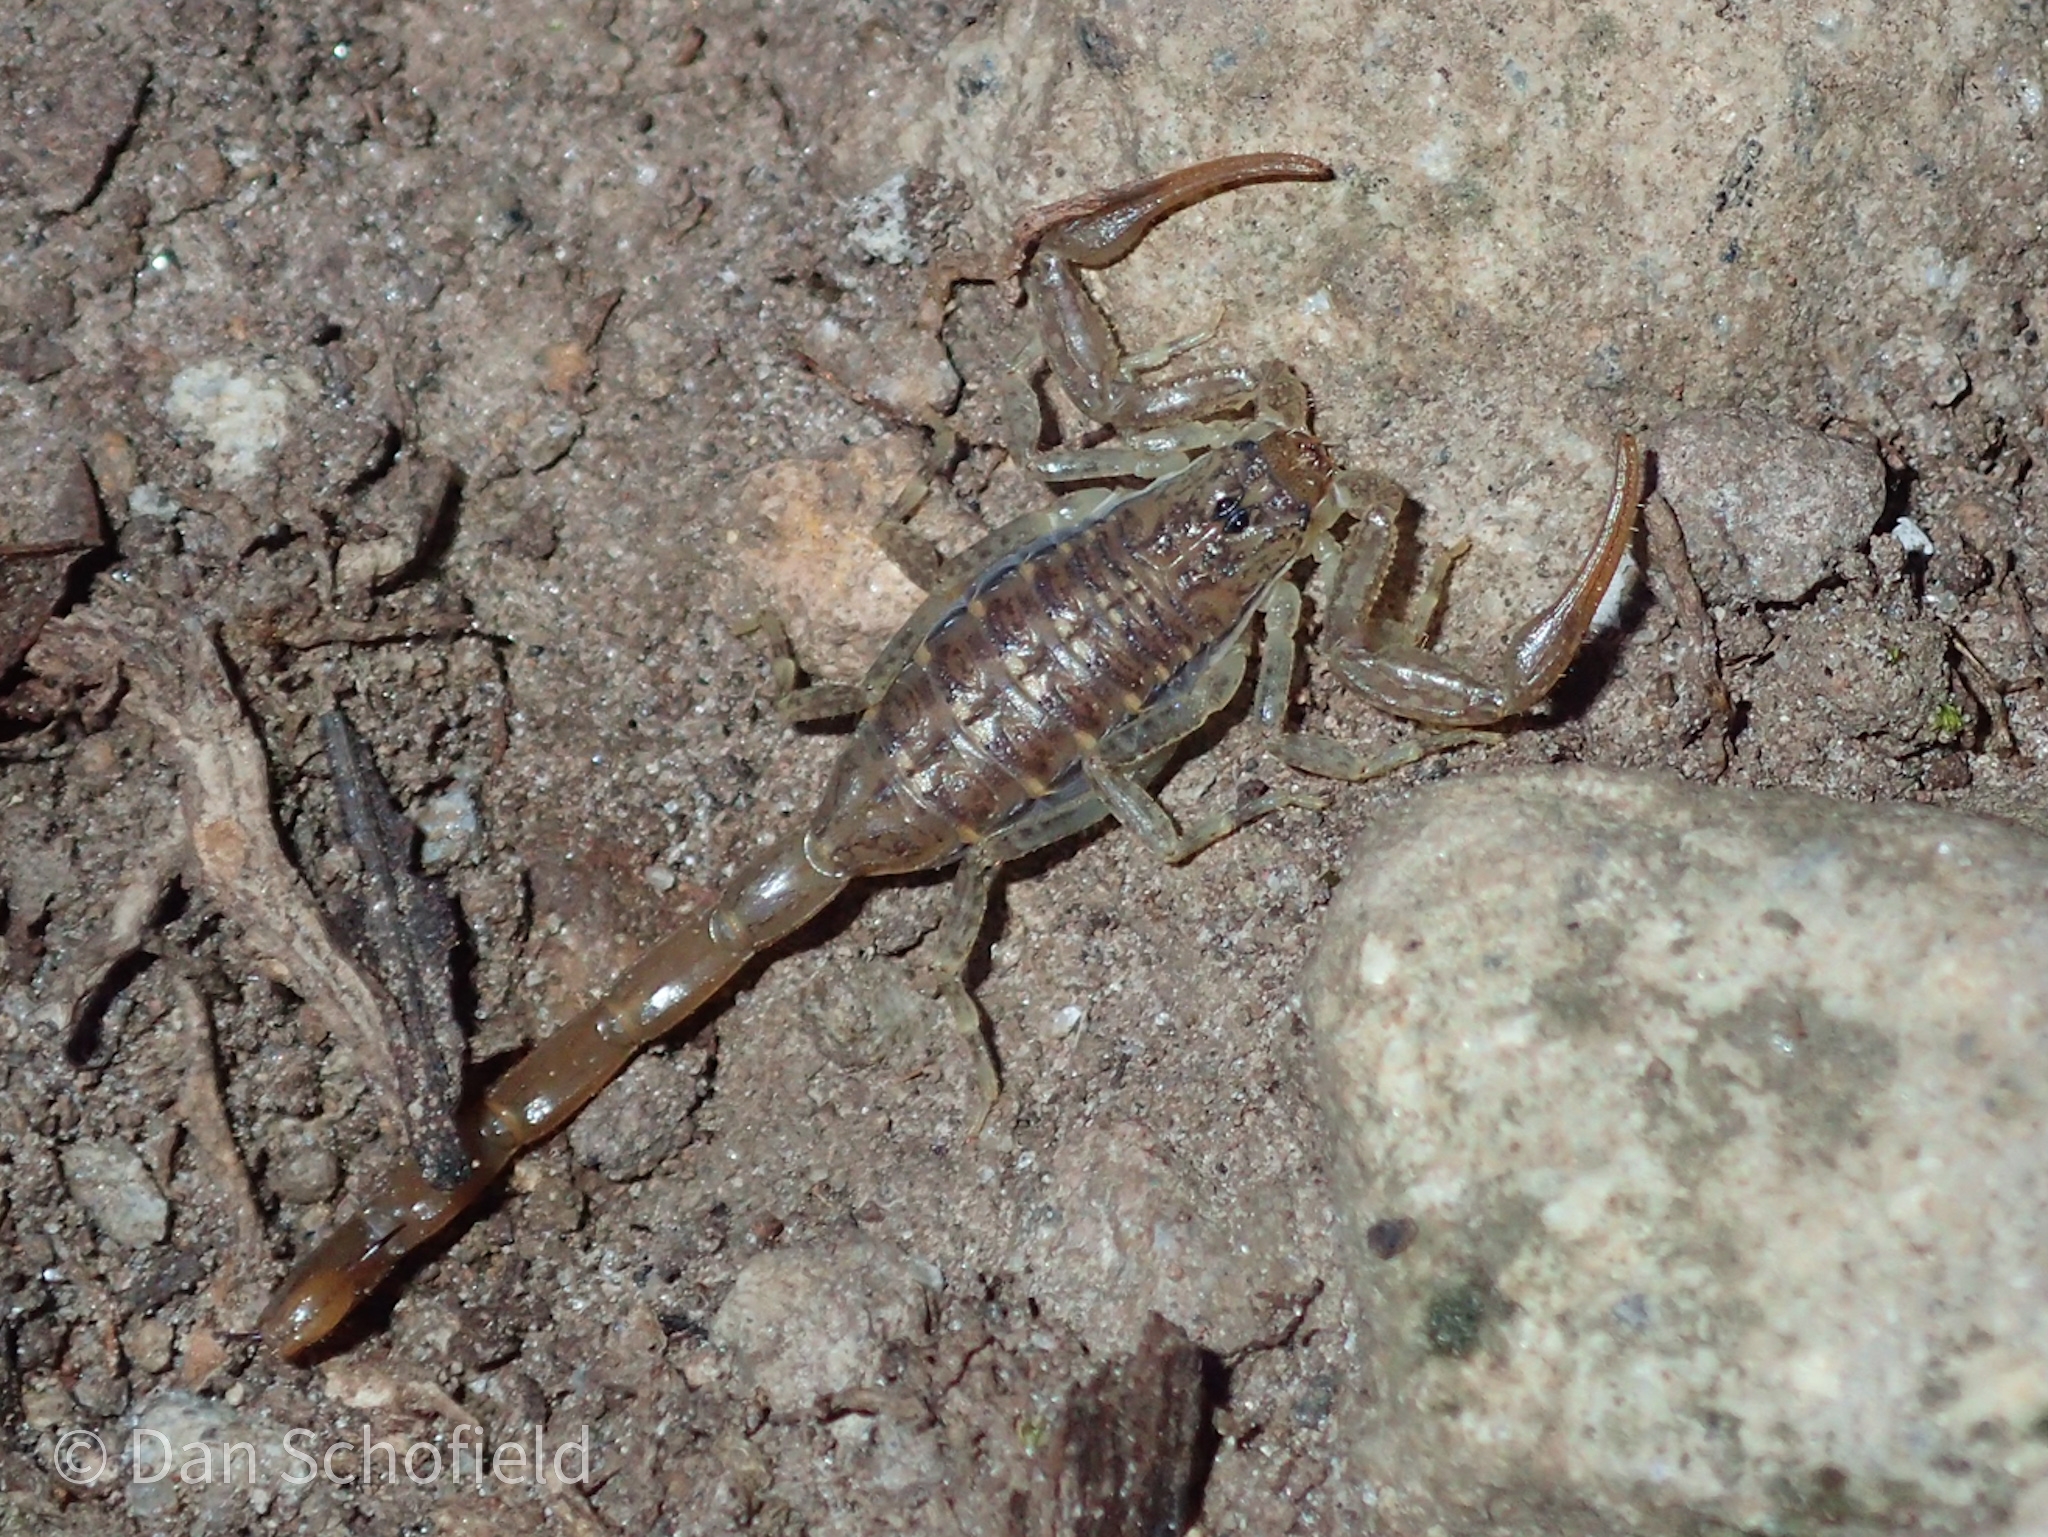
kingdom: Animalia
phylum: Arthropoda
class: Arachnida
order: Scorpiones
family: Buthidae
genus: Centruroides
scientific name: Centruroides barbudensis
